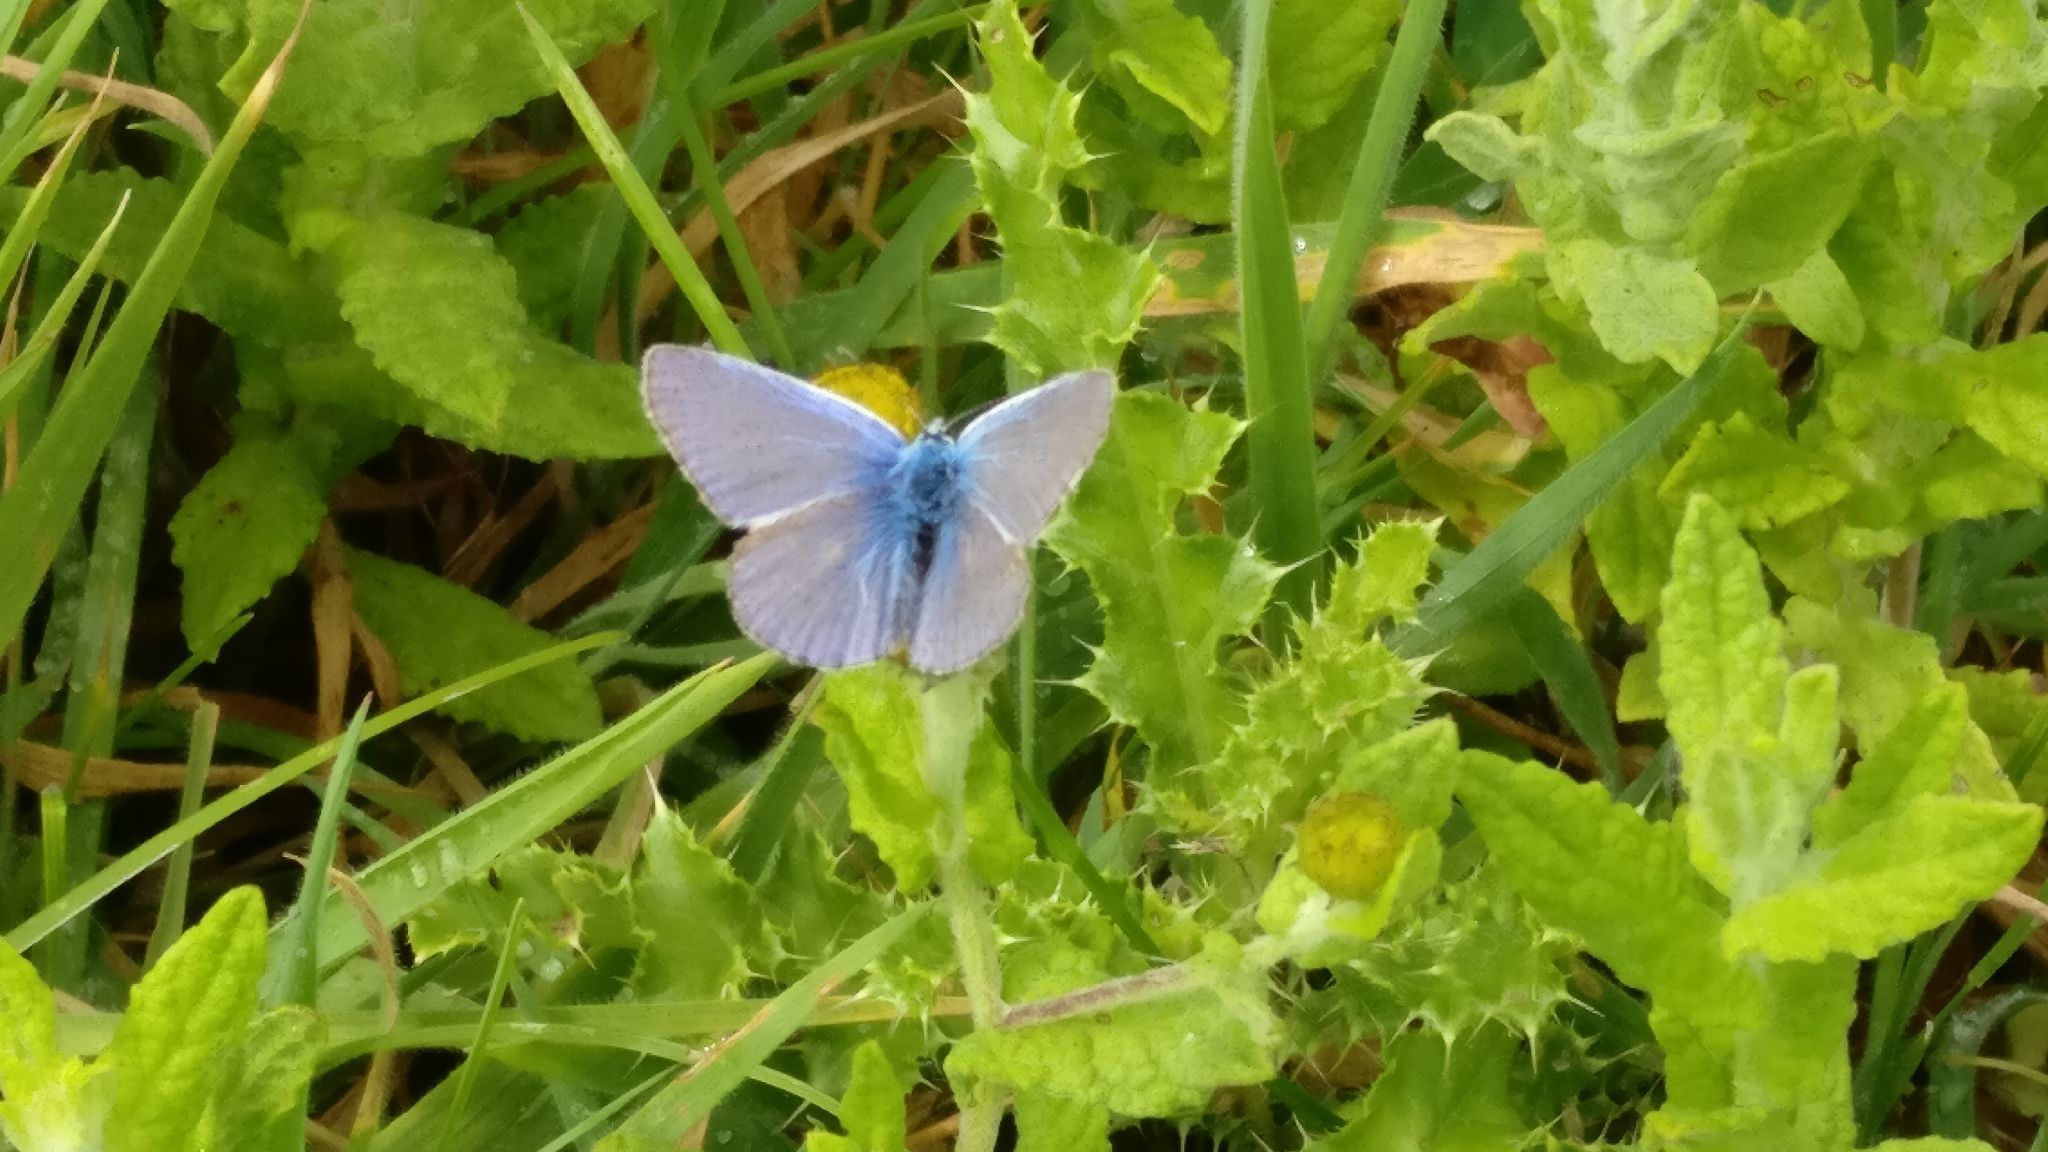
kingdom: Animalia
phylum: Arthropoda
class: Insecta
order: Lepidoptera
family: Lycaenidae
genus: Polyommatus
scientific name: Polyommatus icarus
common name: Common blue
